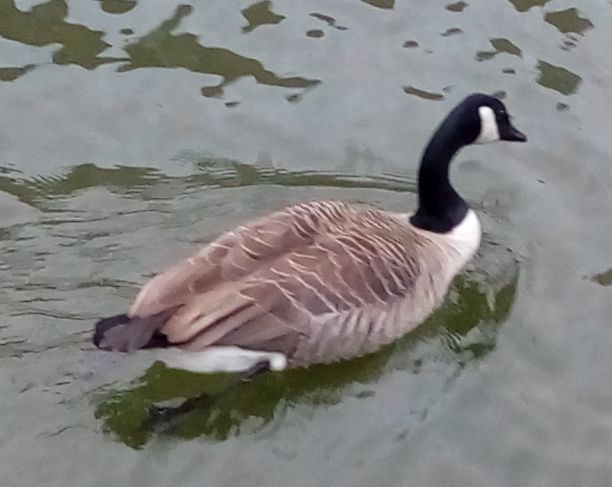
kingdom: Animalia
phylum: Chordata
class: Aves
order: Anseriformes
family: Anatidae
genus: Branta
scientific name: Branta canadensis
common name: Canada goose
